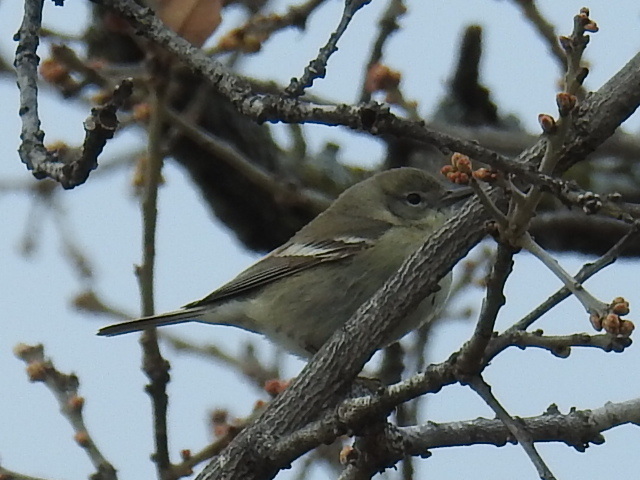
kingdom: Animalia
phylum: Chordata
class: Aves
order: Passeriformes
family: Parulidae
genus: Setophaga
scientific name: Setophaga pinus
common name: Pine warbler
